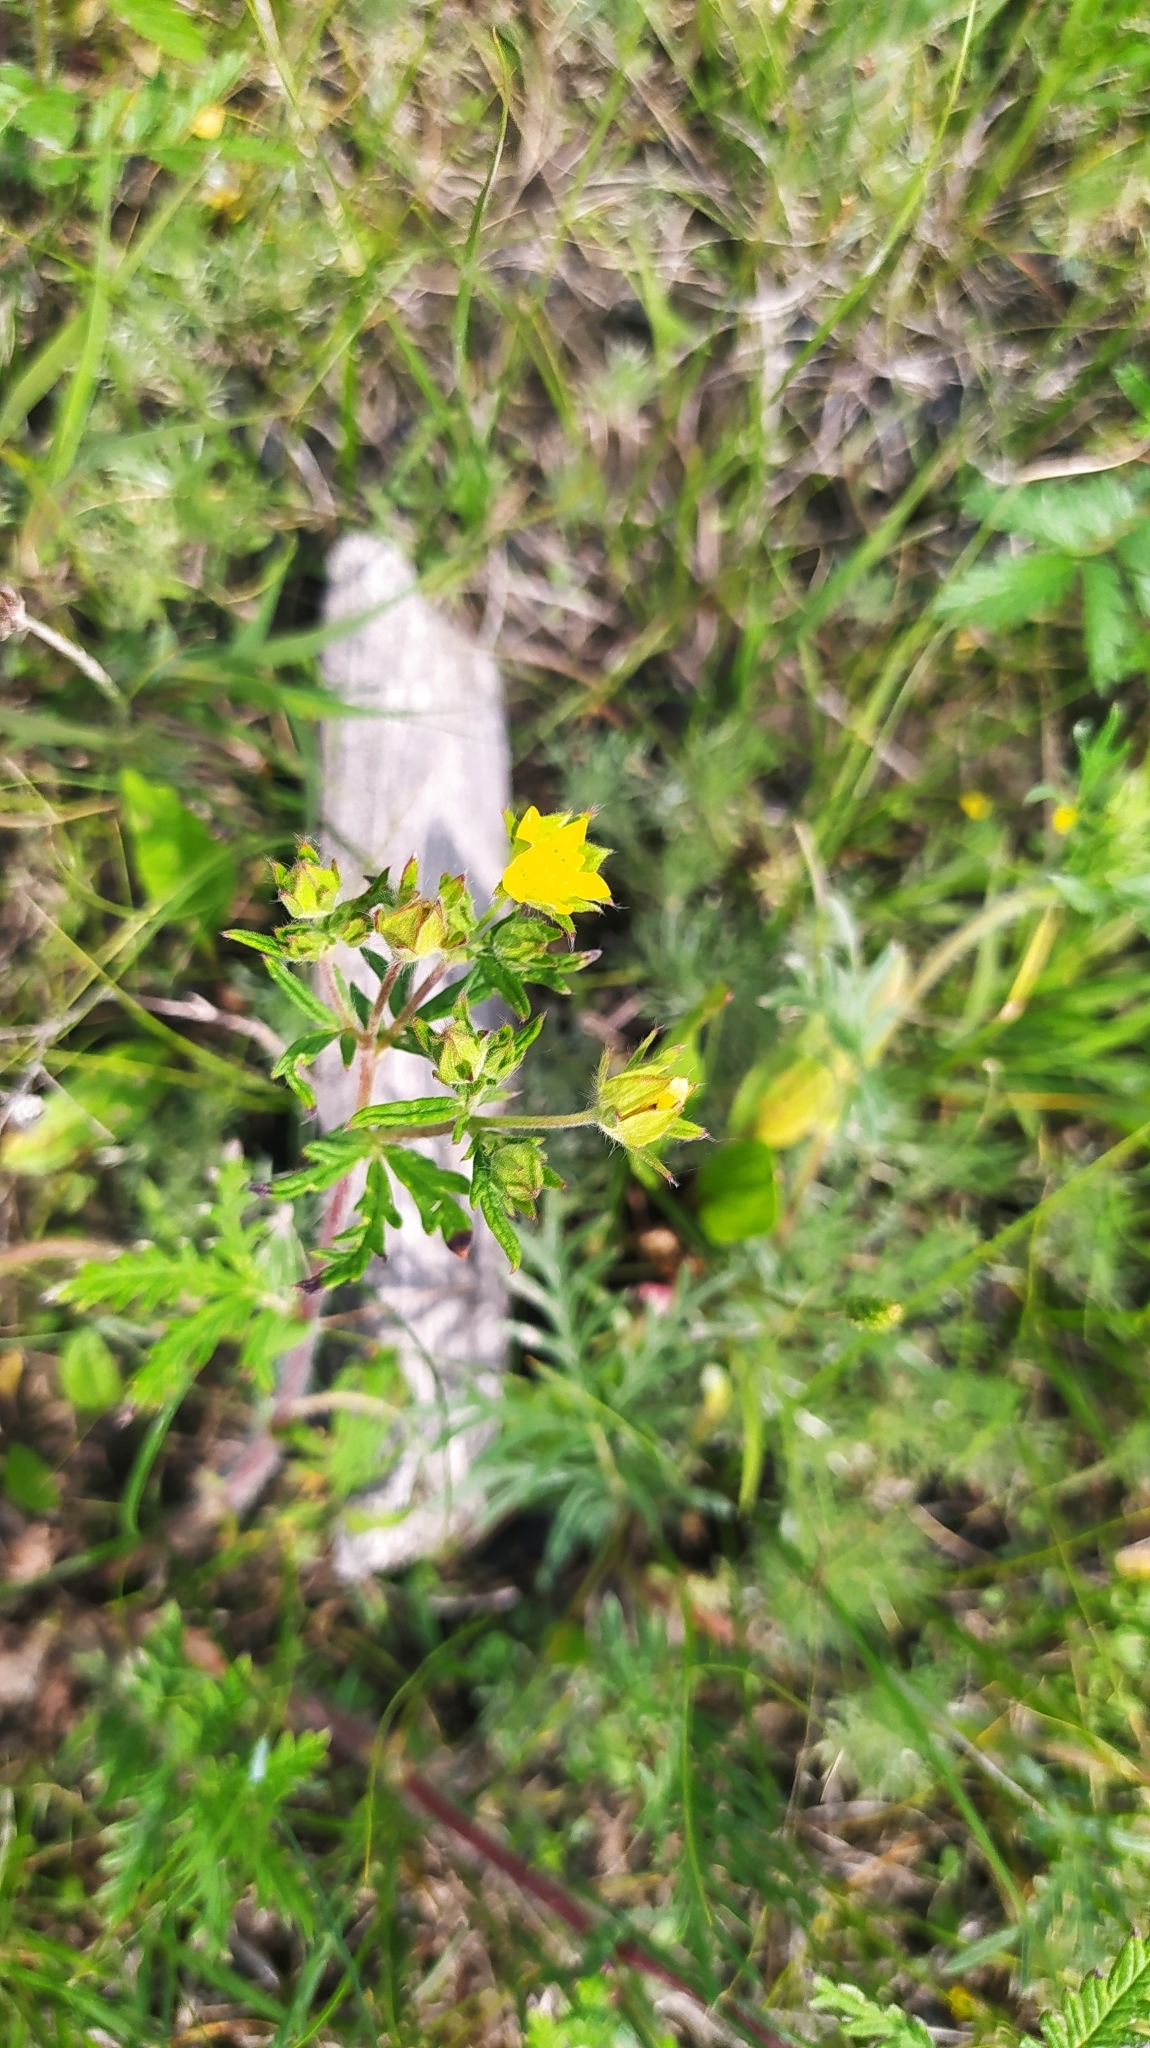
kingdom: Plantae
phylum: Tracheophyta
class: Magnoliopsida
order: Rosales
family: Rosaceae
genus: Potentilla
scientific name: Potentilla conferta
